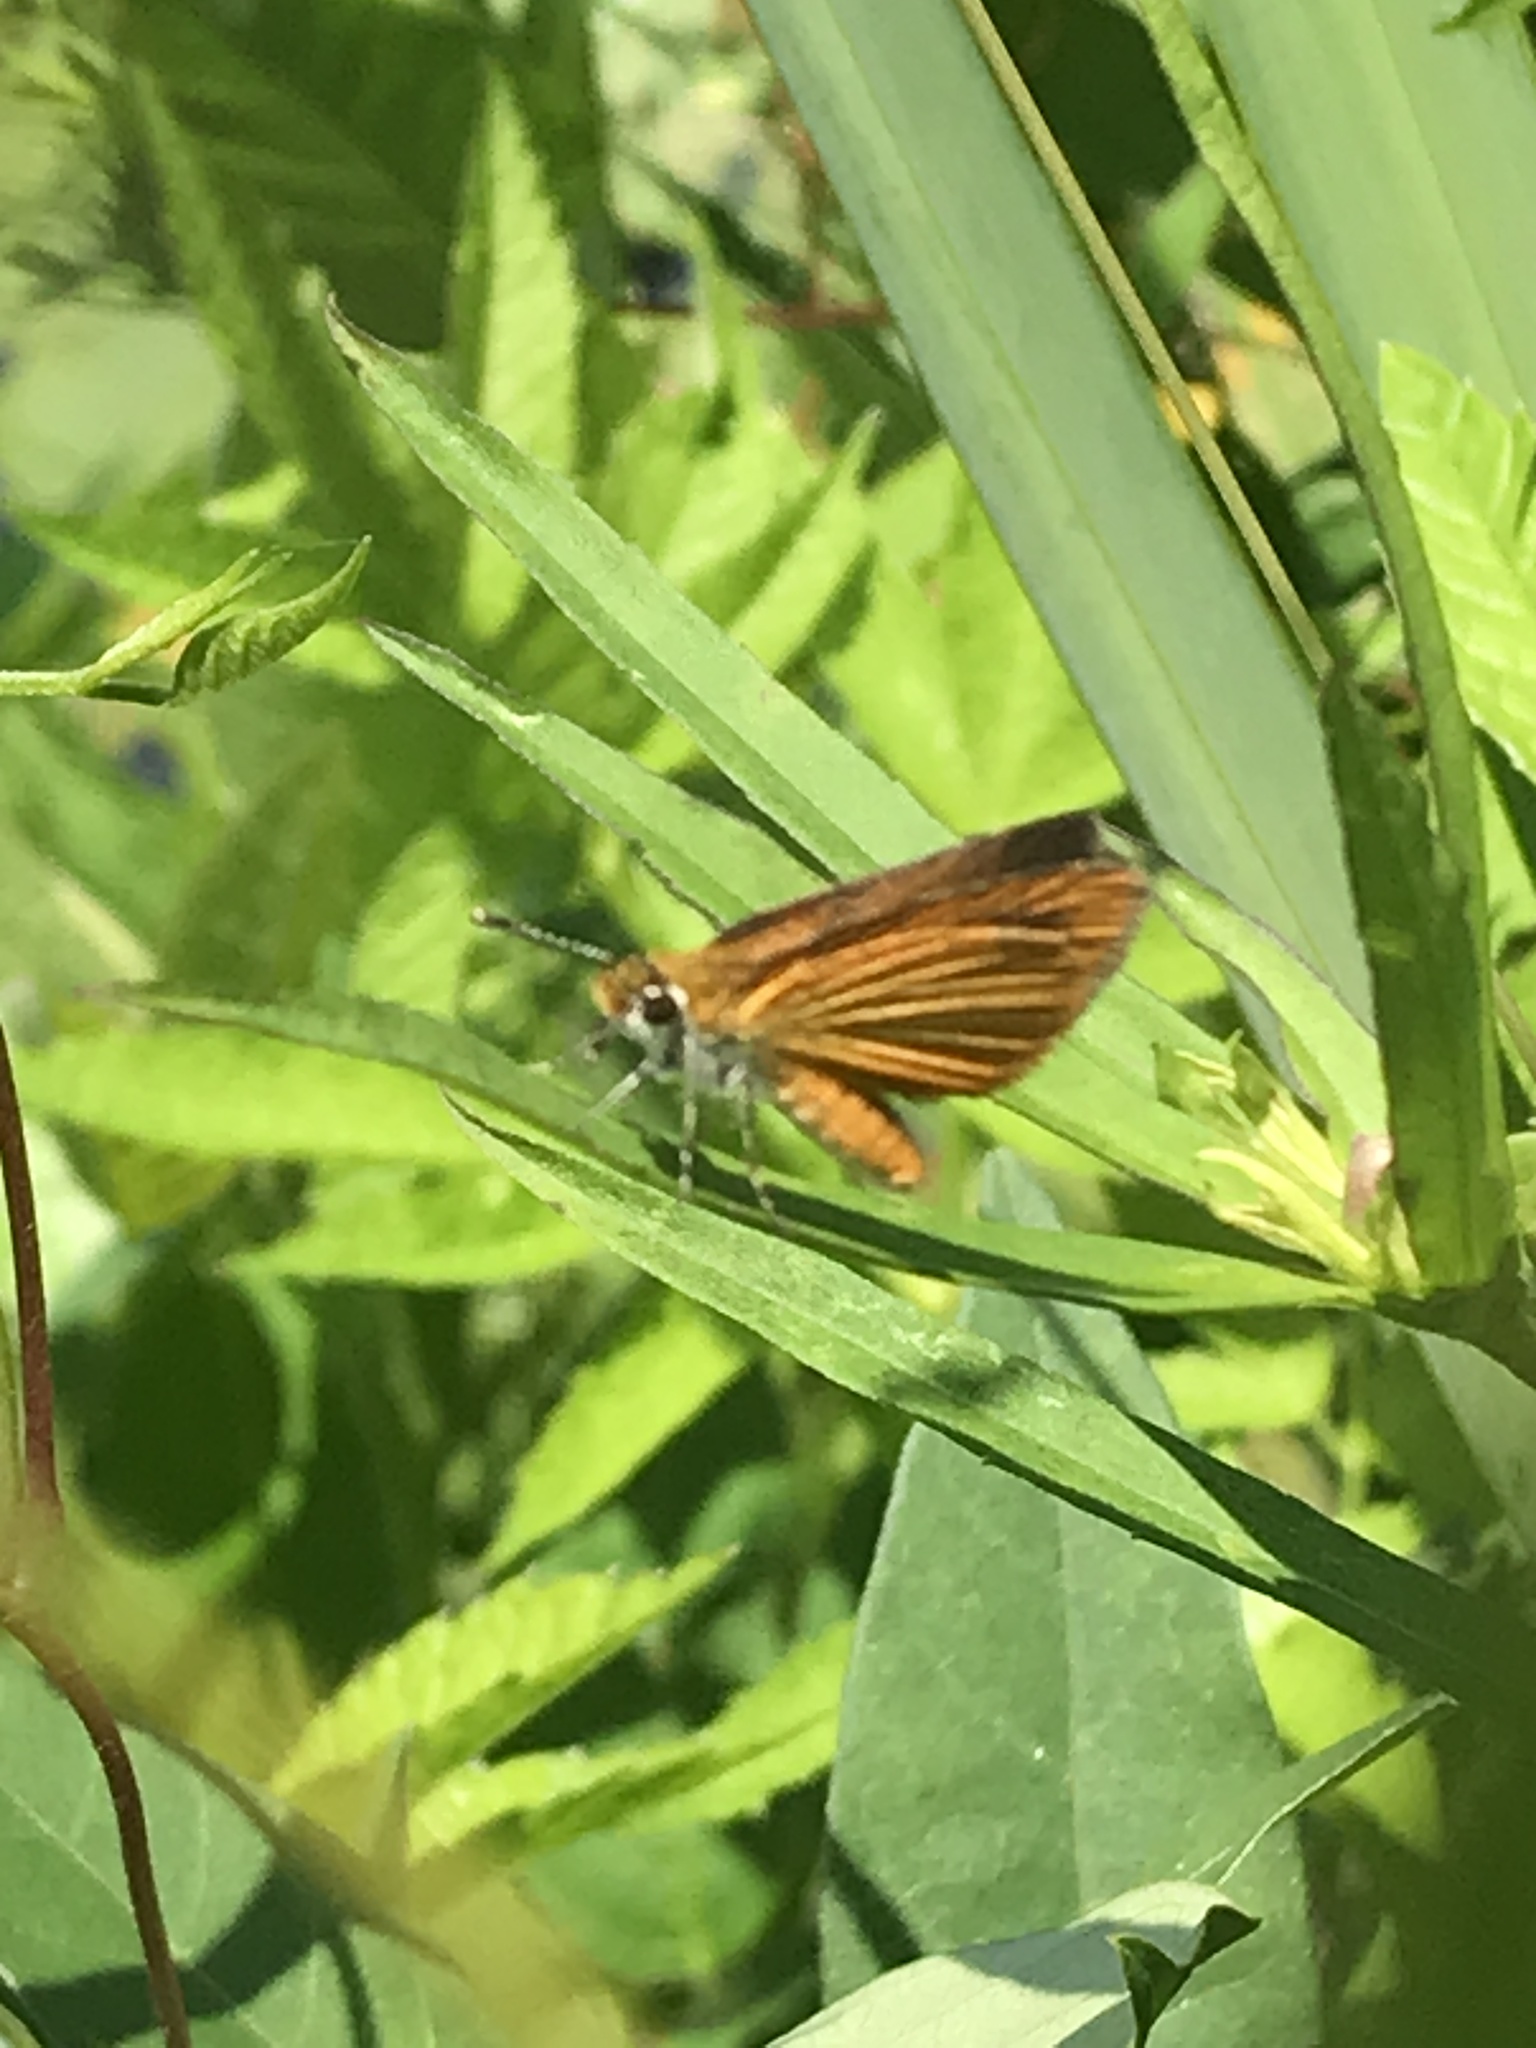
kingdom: Animalia
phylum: Arthropoda
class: Insecta
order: Lepidoptera
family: Hesperiidae
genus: Ancyloxypha
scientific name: Ancyloxypha numitor
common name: Least skipper
